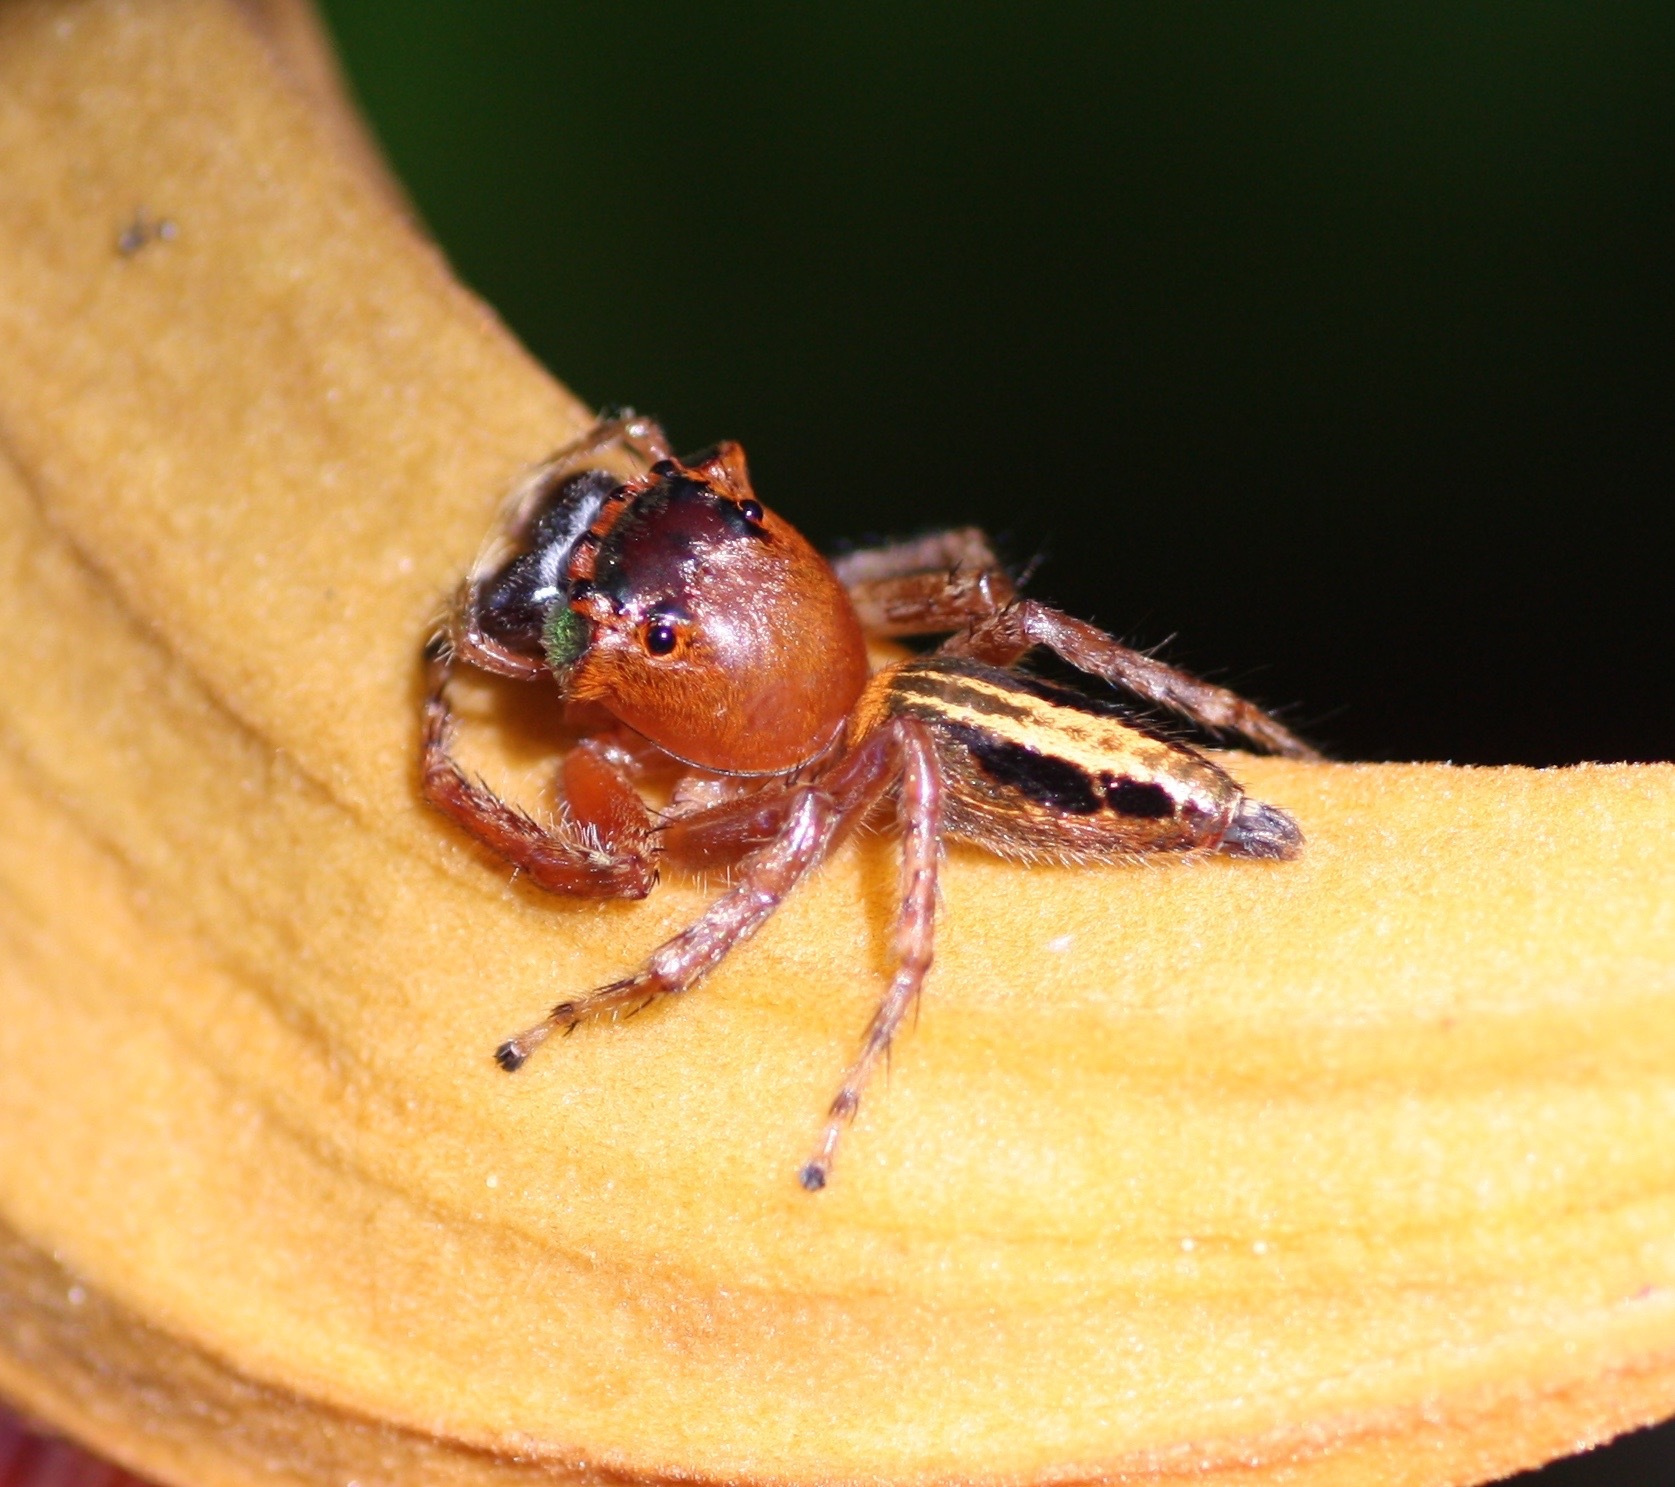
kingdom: Animalia
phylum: Arthropoda
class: Arachnida
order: Araneae
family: Salticidae
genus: Ascyltus
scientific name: Ascyltus pterygodes
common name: Jumping spider
